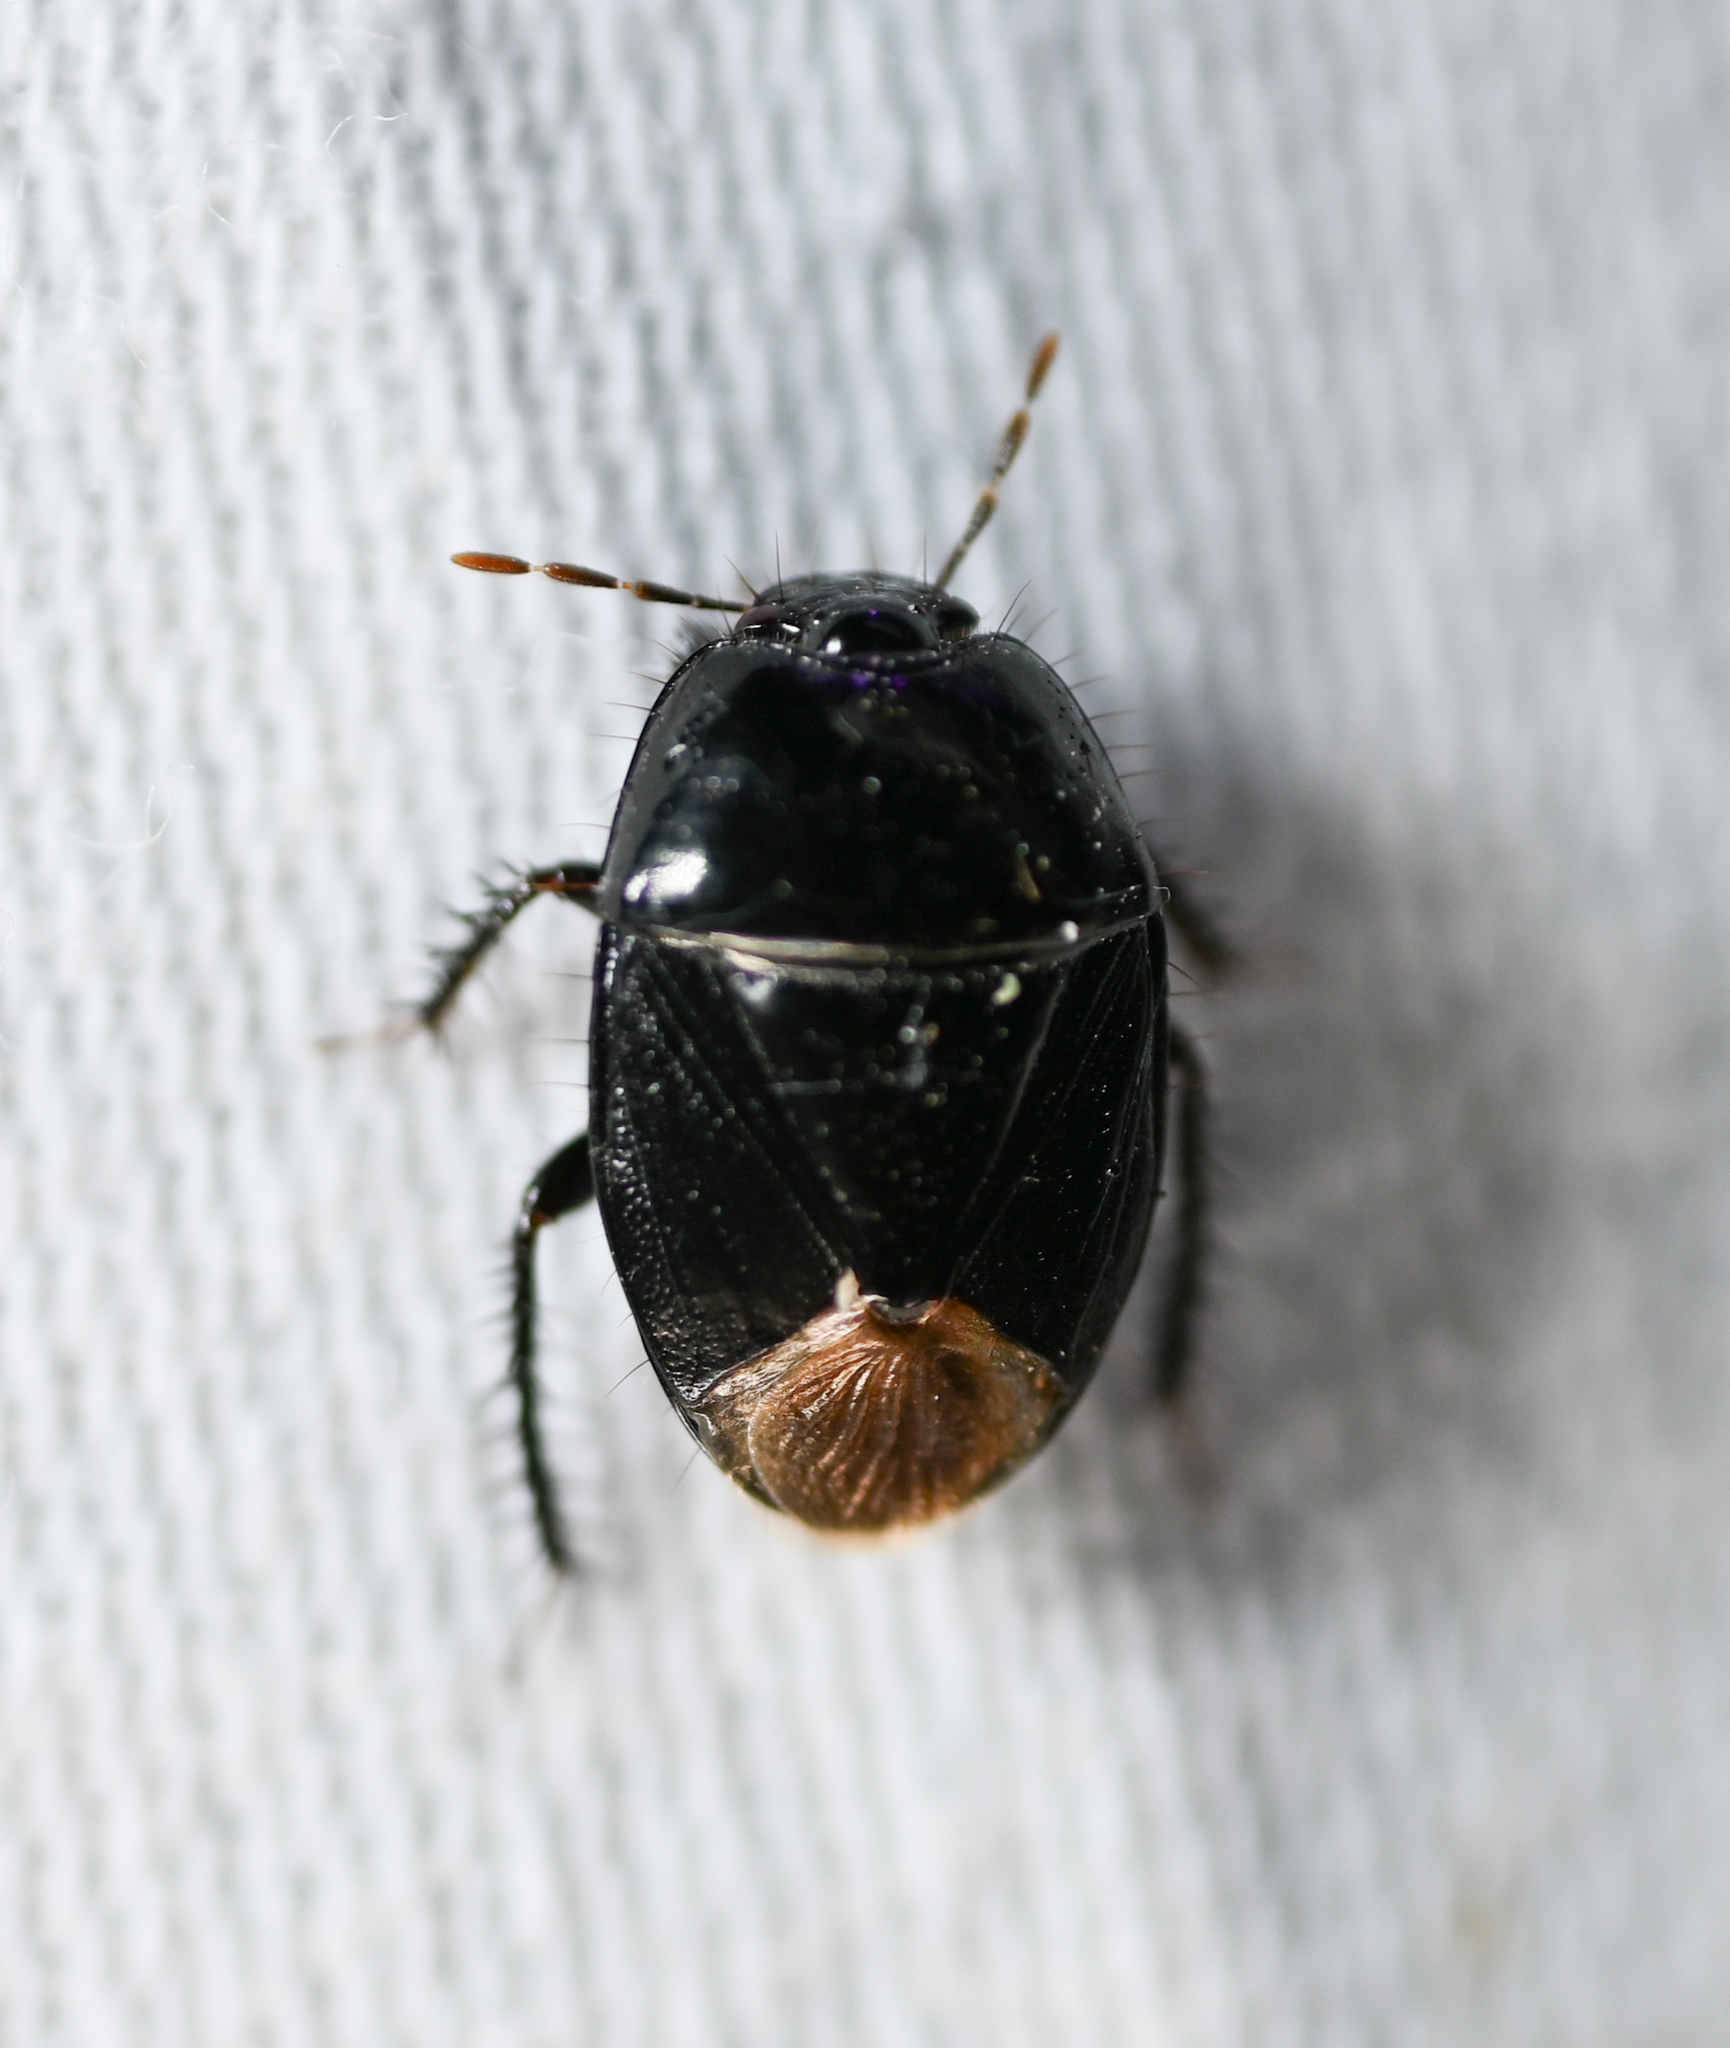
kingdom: Animalia
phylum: Arthropoda
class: Insecta
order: Hemiptera
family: Cydnidae
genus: Pangaeus
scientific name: Pangaeus bilineatus
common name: Burrower bug
